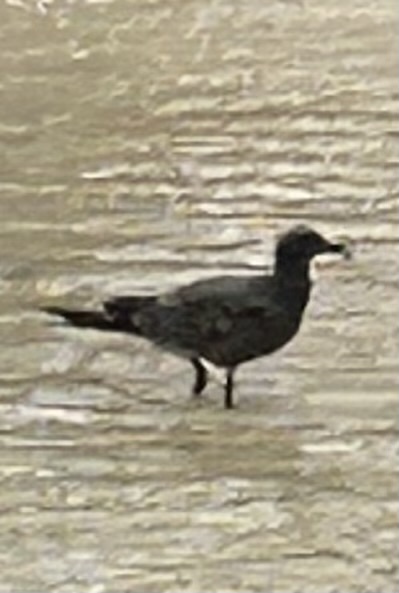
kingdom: Animalia
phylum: Chordata
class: Aves
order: Charadriiformes
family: Laridae
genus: Leucophaeus
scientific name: Leucophaeus fuliginosus
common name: Lava gull
